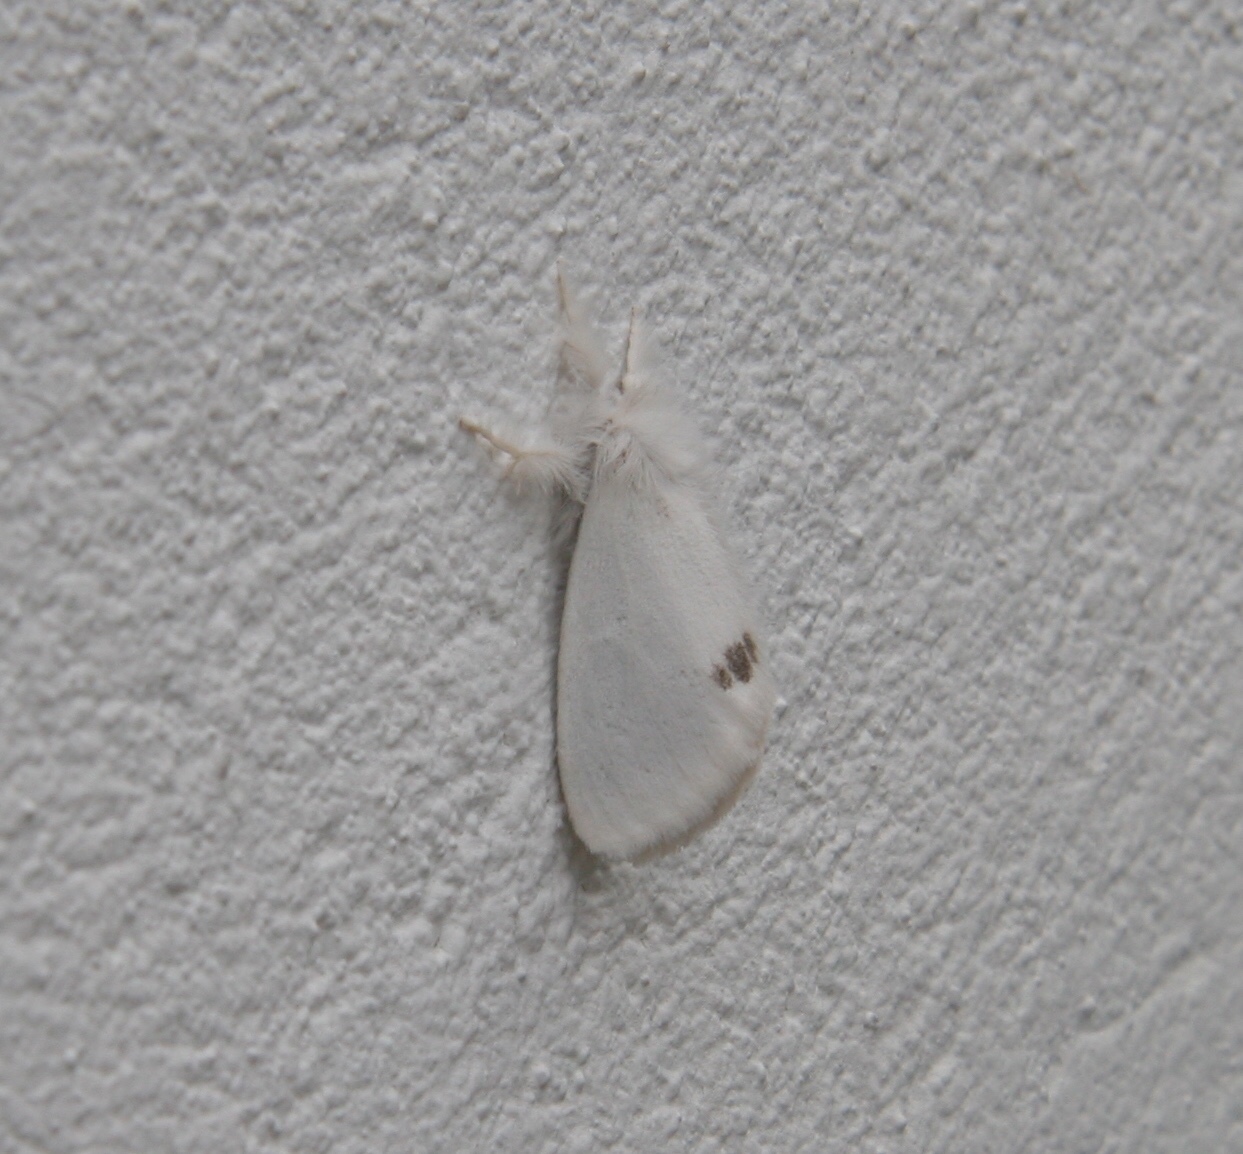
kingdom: Animalia
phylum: Arthropoda
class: Insecta
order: Lepidoptera
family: Erebidae
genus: Sphrageidus
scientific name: Sphrageidus similis
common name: Yellow-tail
